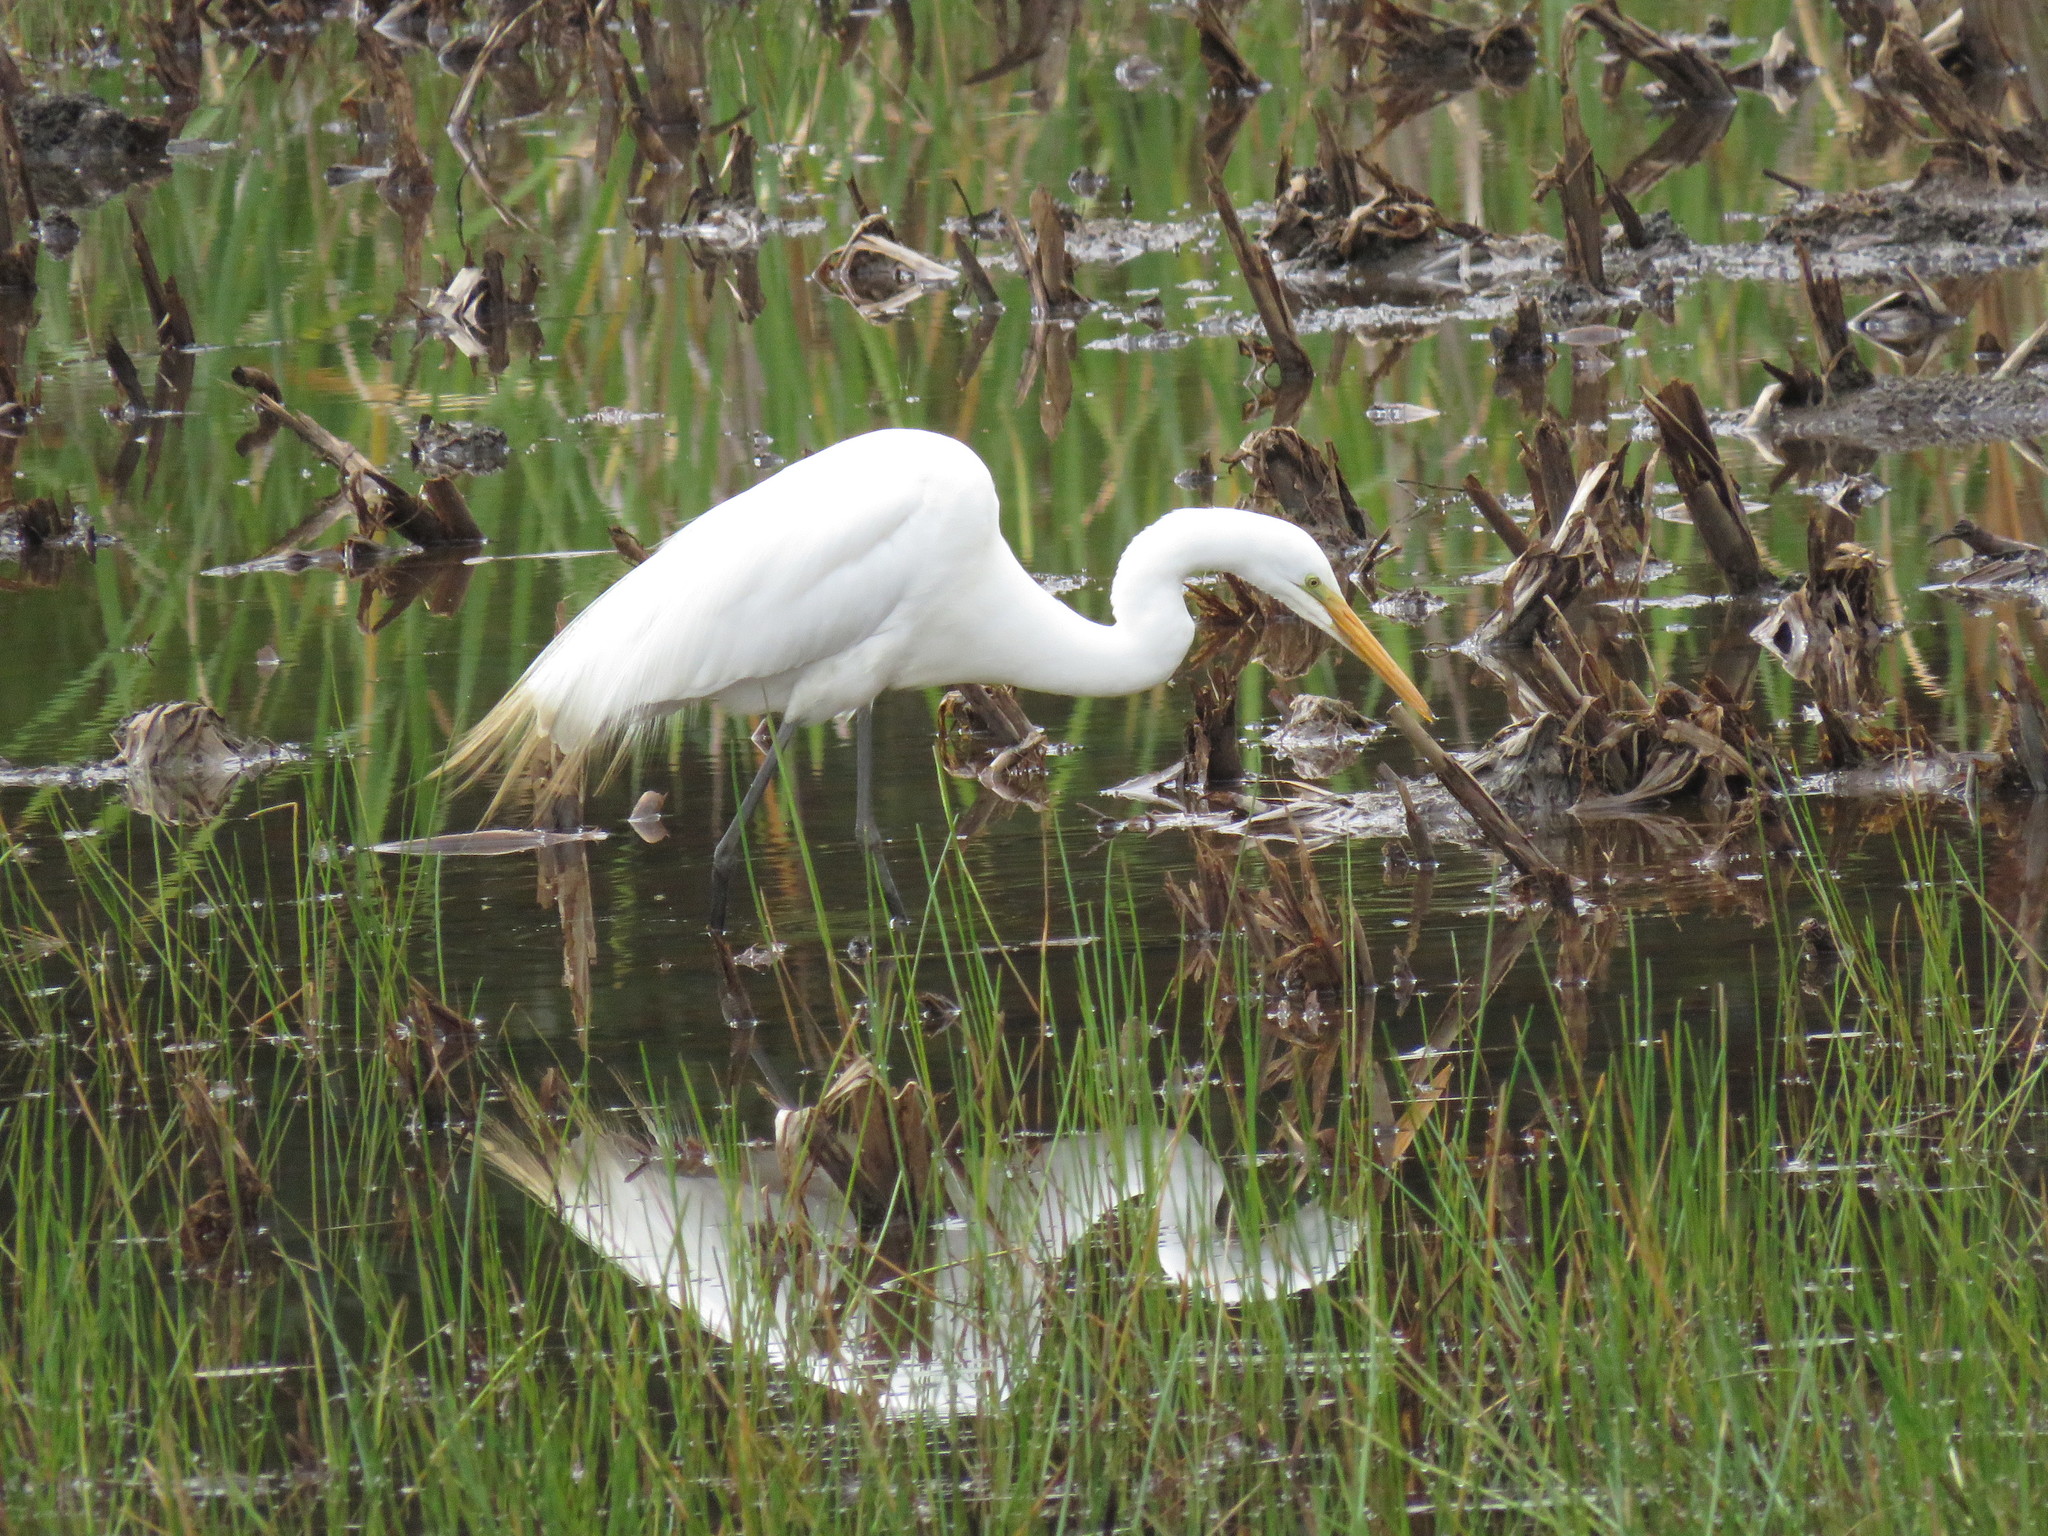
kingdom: Animalia
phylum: Chordata
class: Aves
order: Pelecaniformes
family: Ardeidae
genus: Ardea
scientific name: Ardea alba
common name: Great egret
